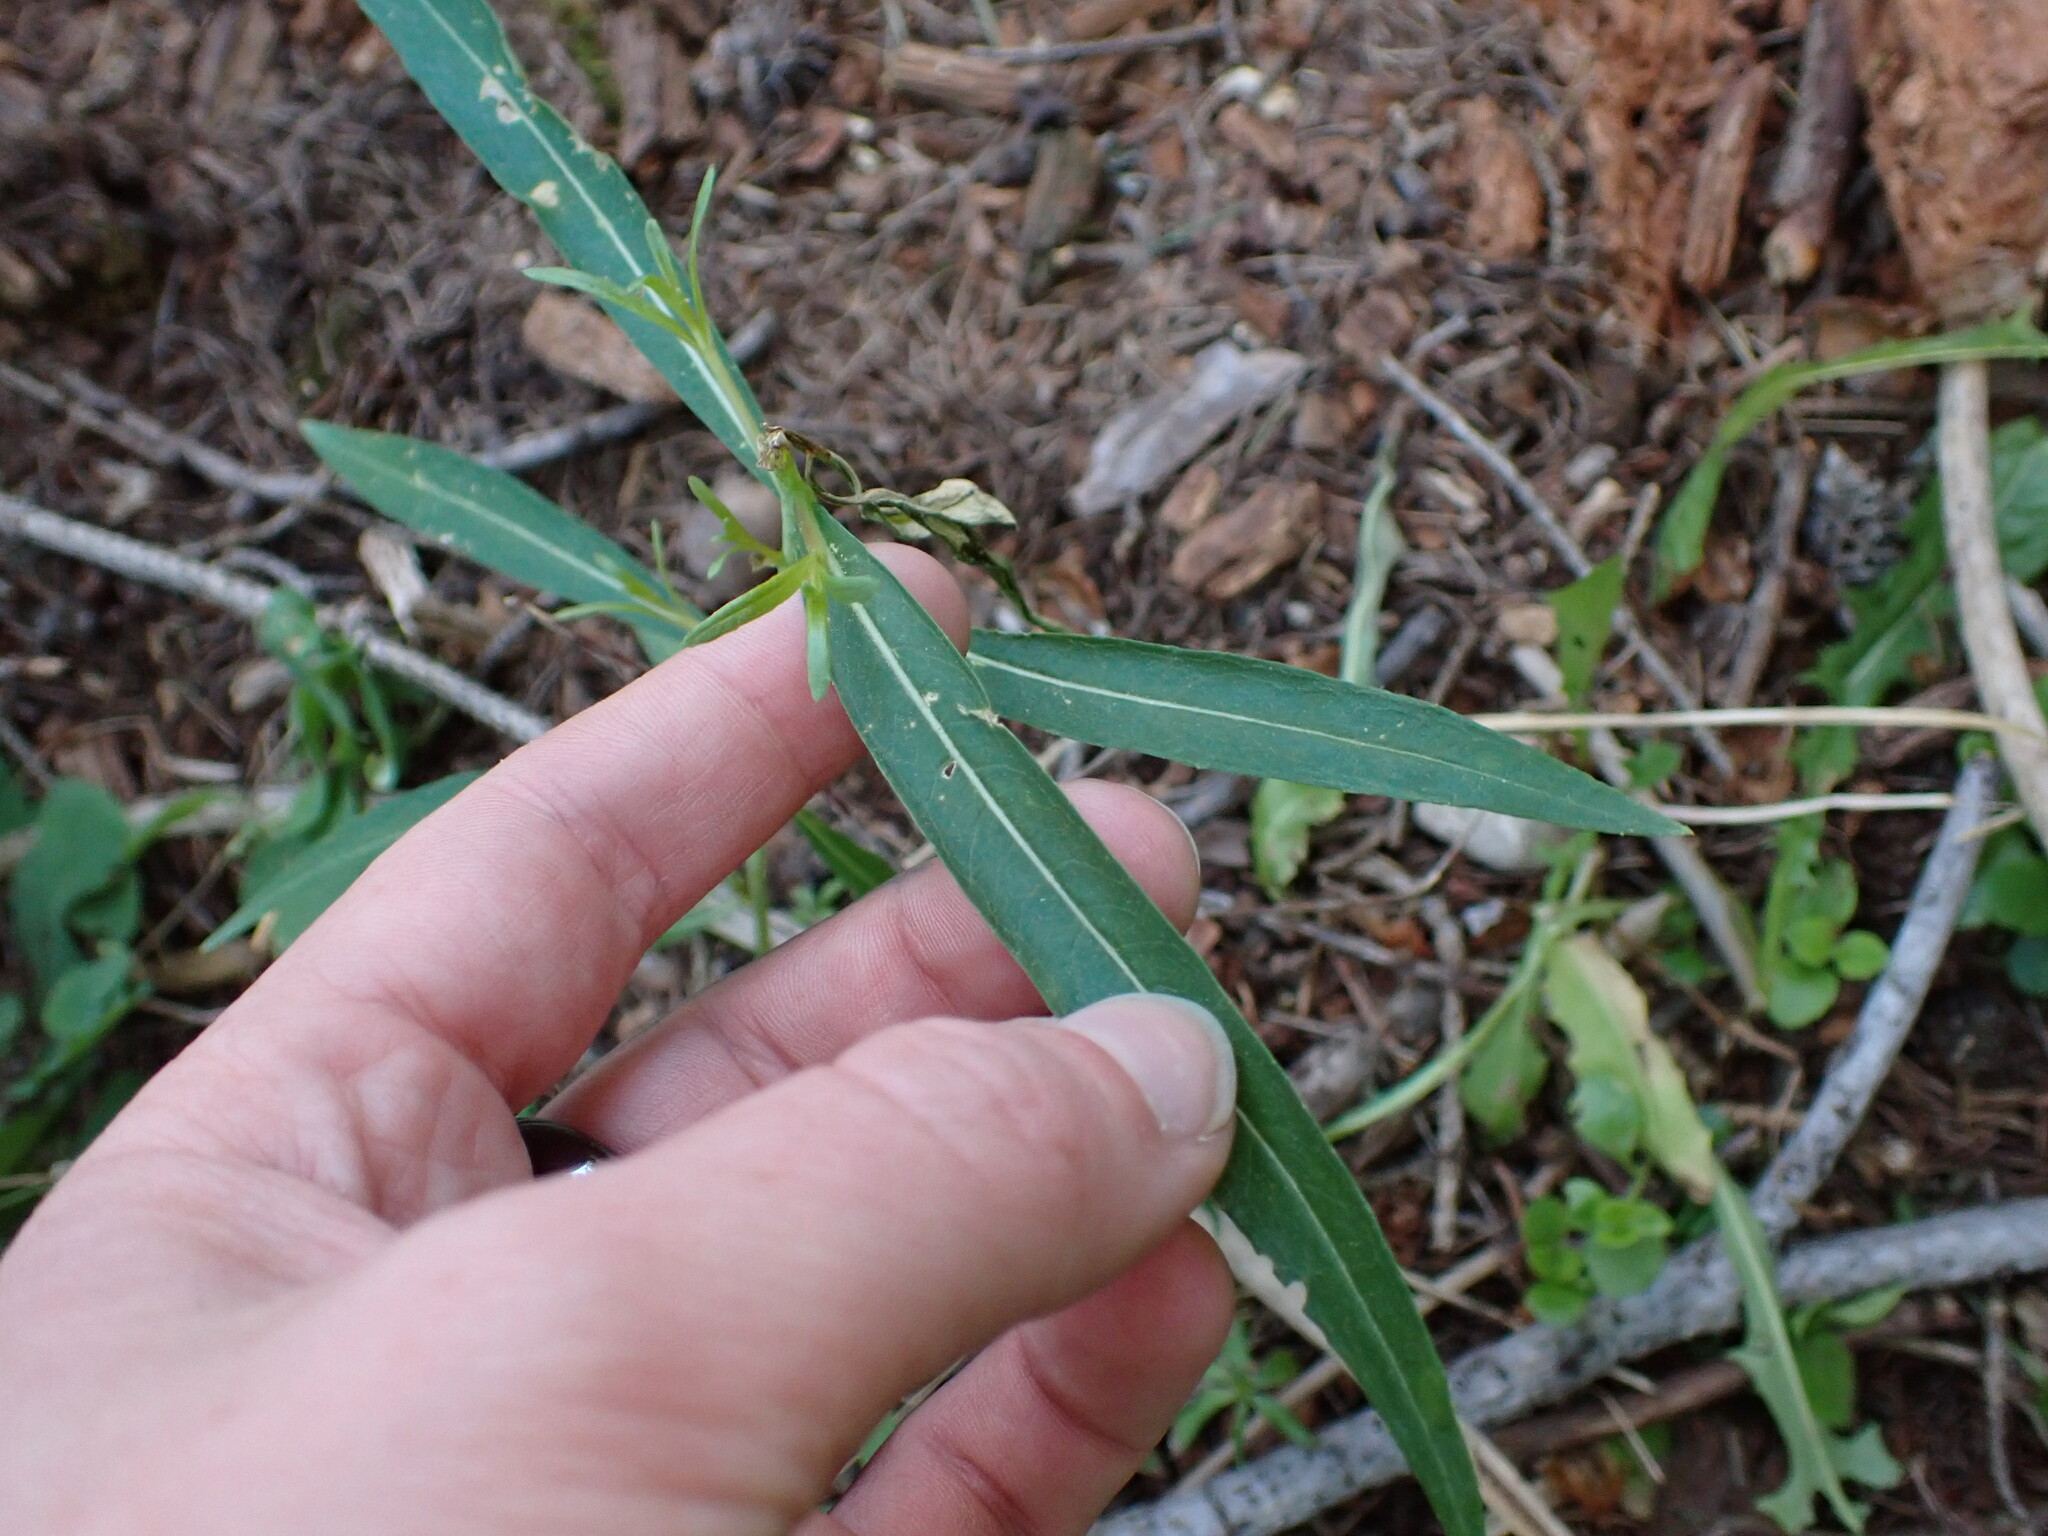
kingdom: Plantae
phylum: Tracheophyta
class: Magnoliopsida
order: Myrtales
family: Onagraceae
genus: Chamaenerion
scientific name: Chamaenerion angustifolium
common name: Fireweed
